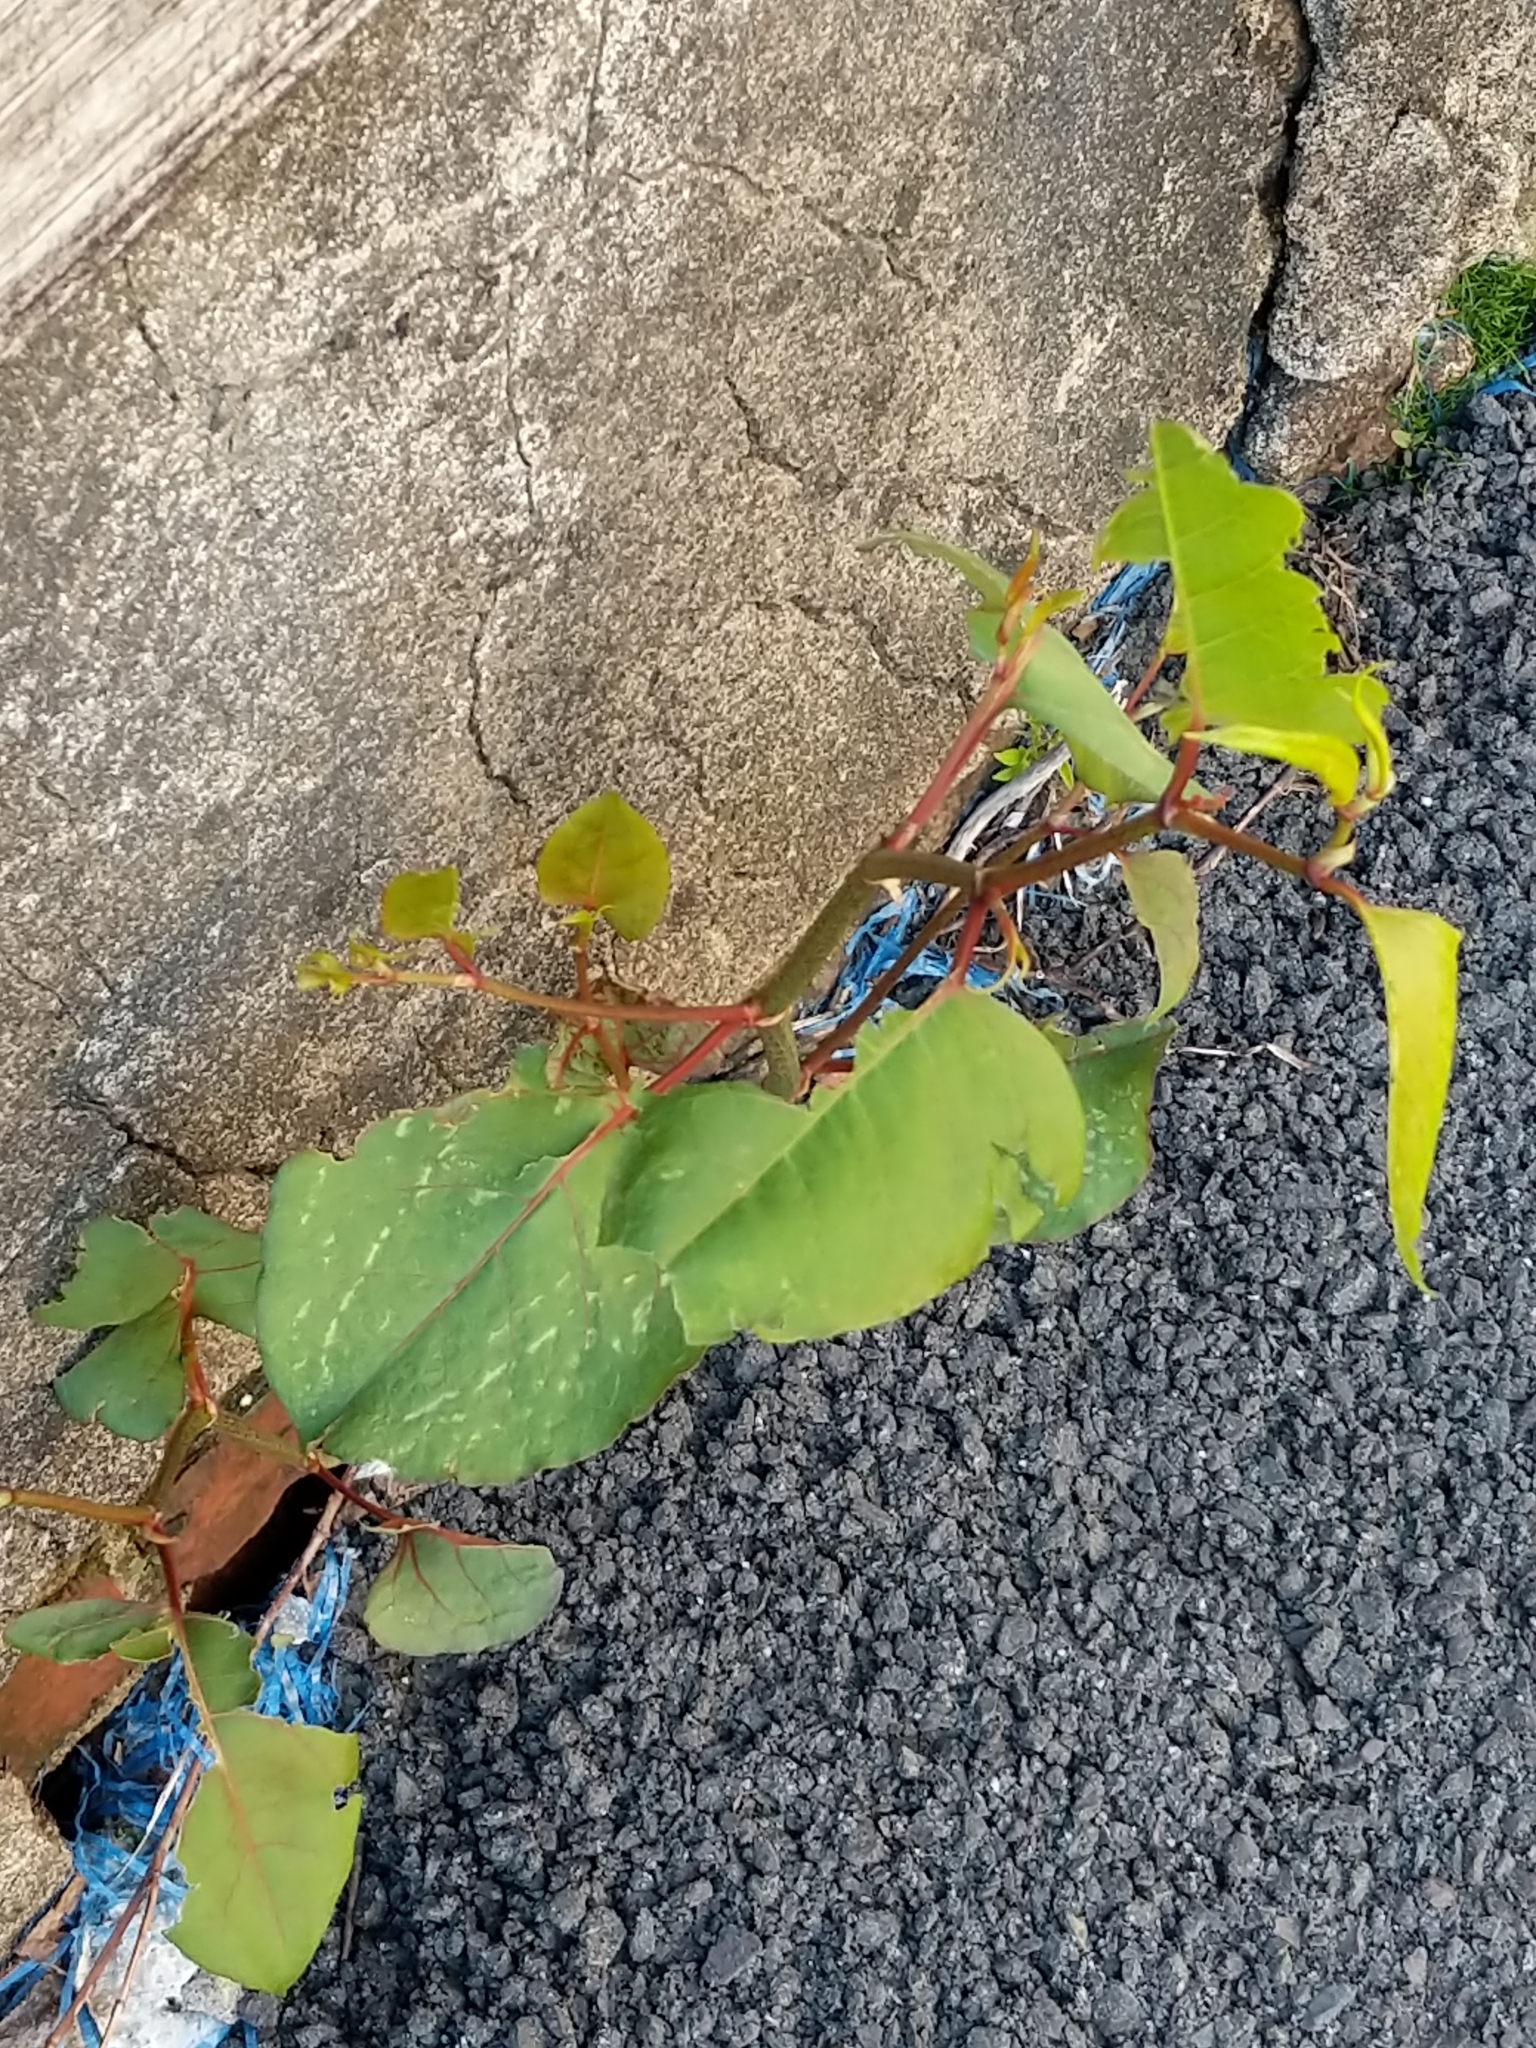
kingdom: Plantae
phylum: Tracheophyta
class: Magnoliopsida
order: Caryophyllales
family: Polygonaceae
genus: Reynoutria
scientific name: Reynoutria japonica
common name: Japanese knotweed
